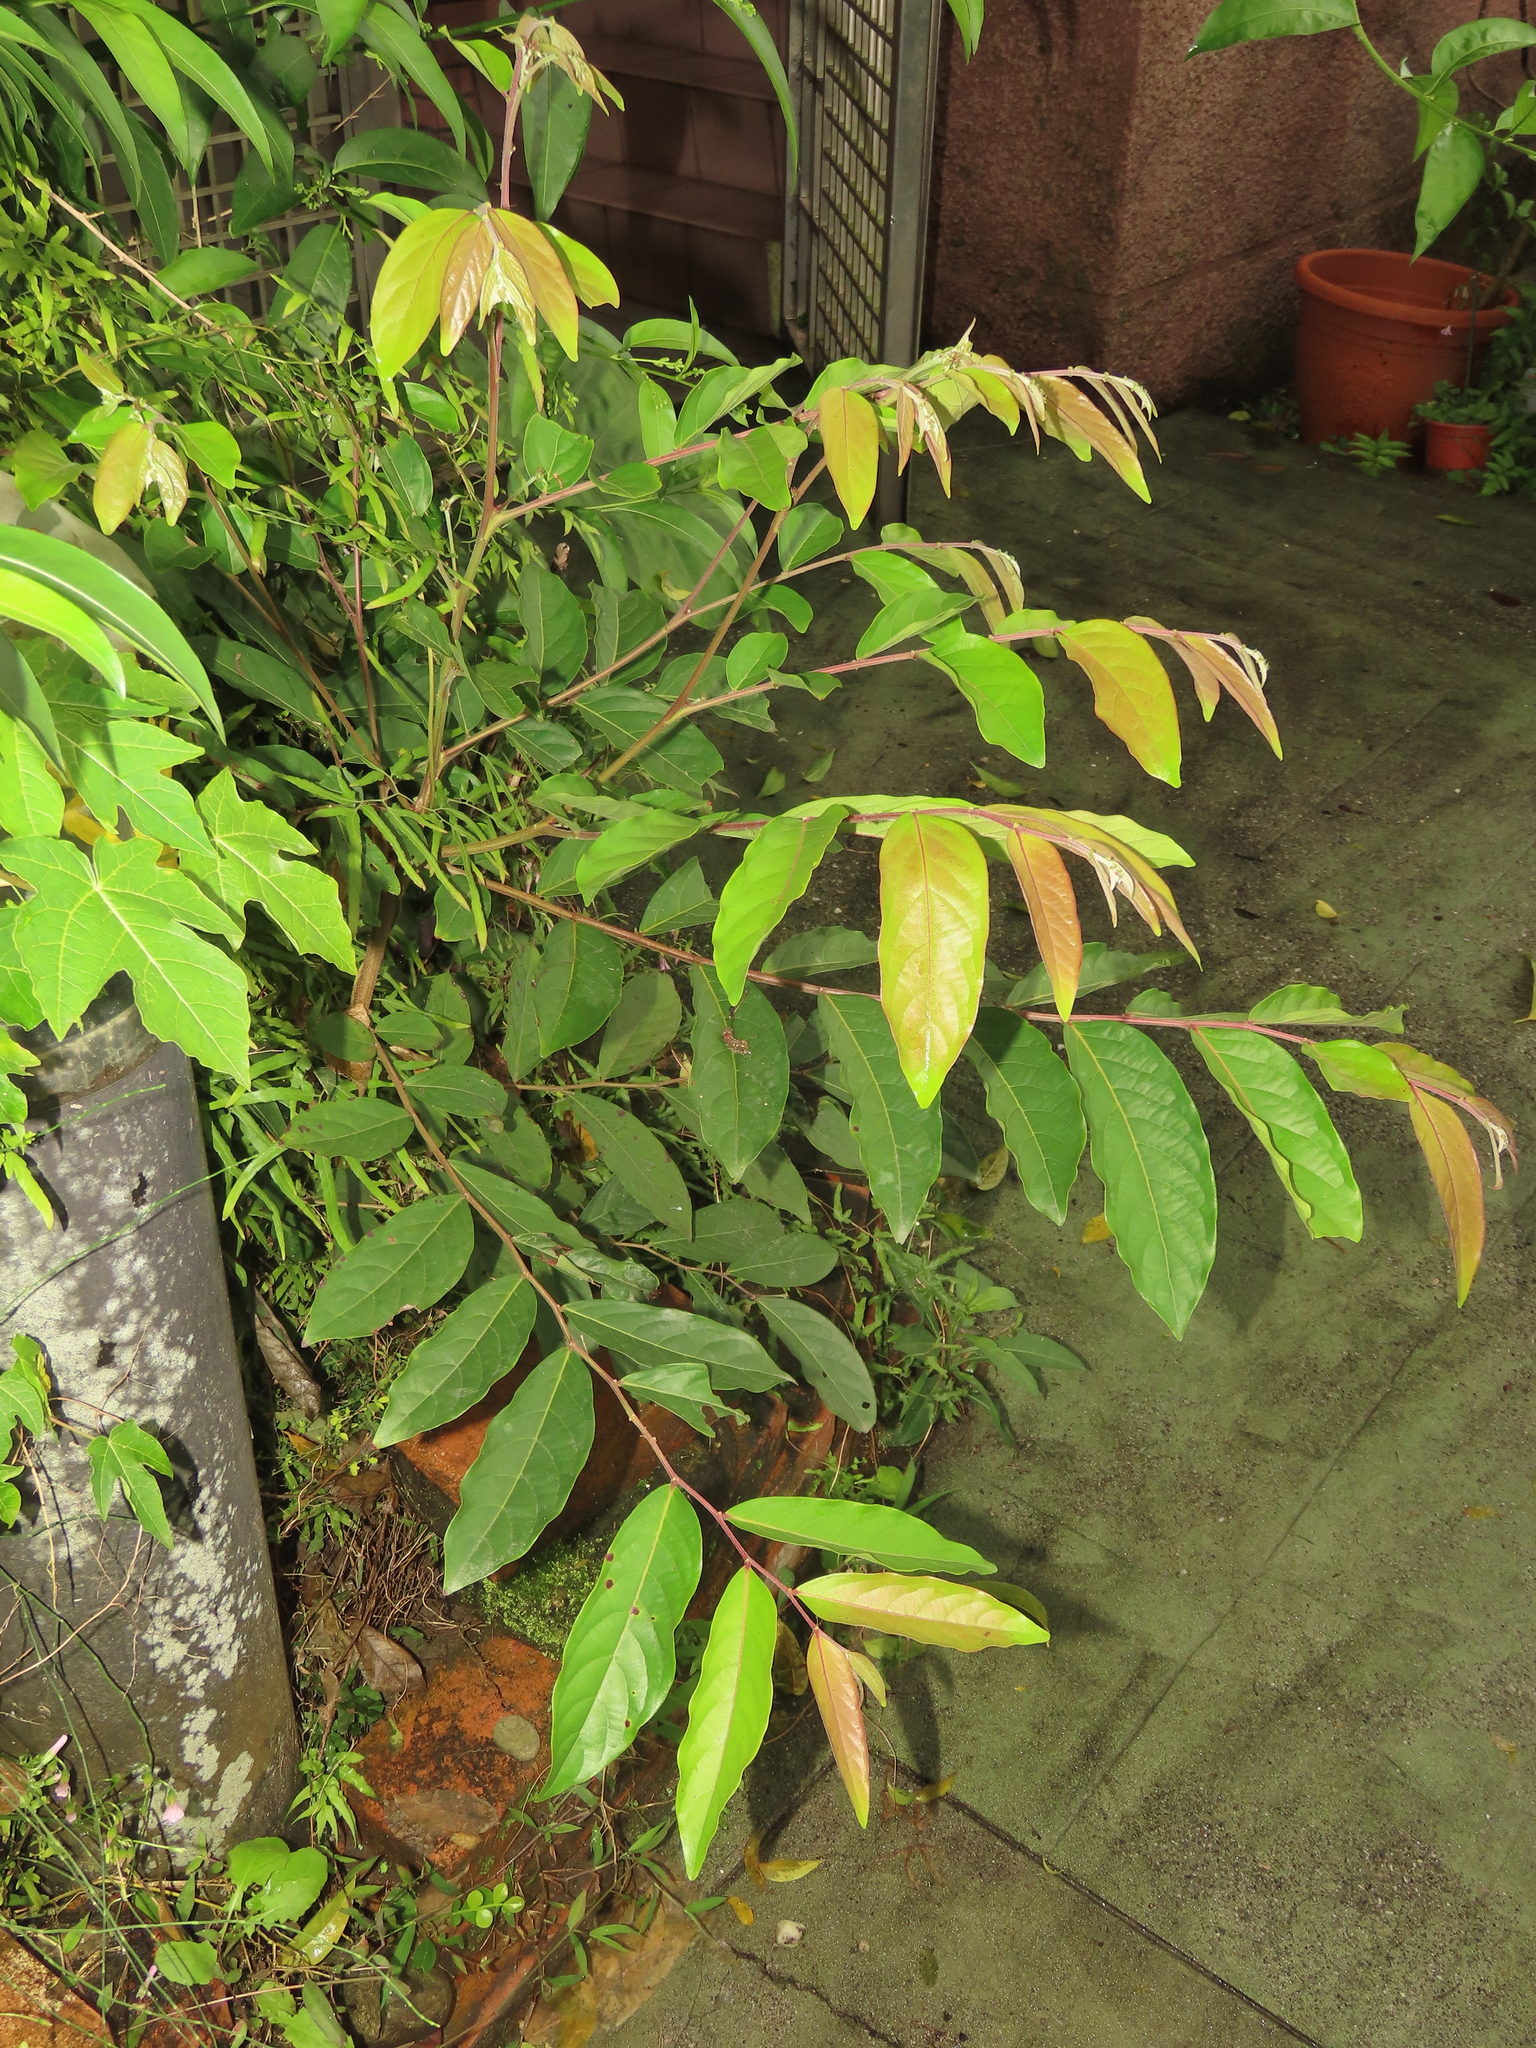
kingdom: Plantae
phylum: Tracheophyta
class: Magnoliopsida
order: Malpighiales
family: Phyllanthaceae
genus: Glochidion
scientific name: Glochidion philippicum
